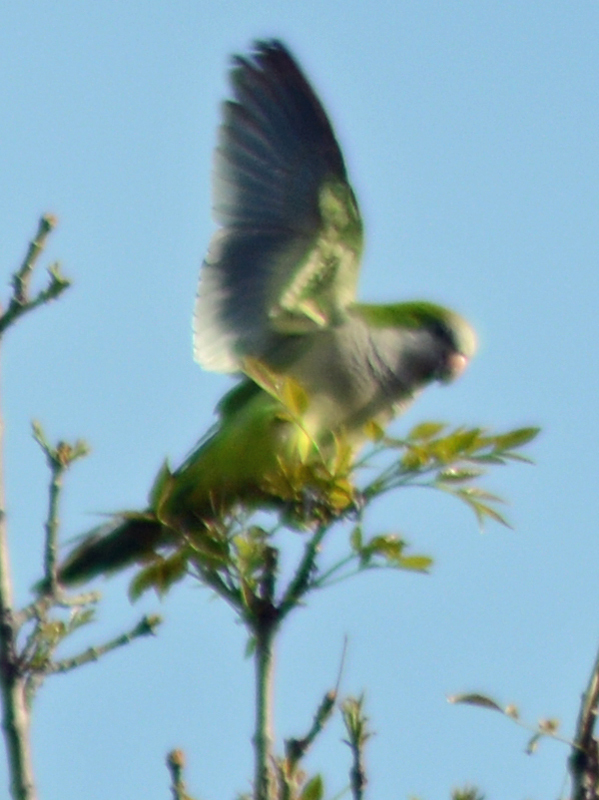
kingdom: Animalia
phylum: Chordata
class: Aves
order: Psittaciformes
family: Psittacidae
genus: Myiopsitta
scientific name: Myiopsitta monachus
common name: Monk parakeet
